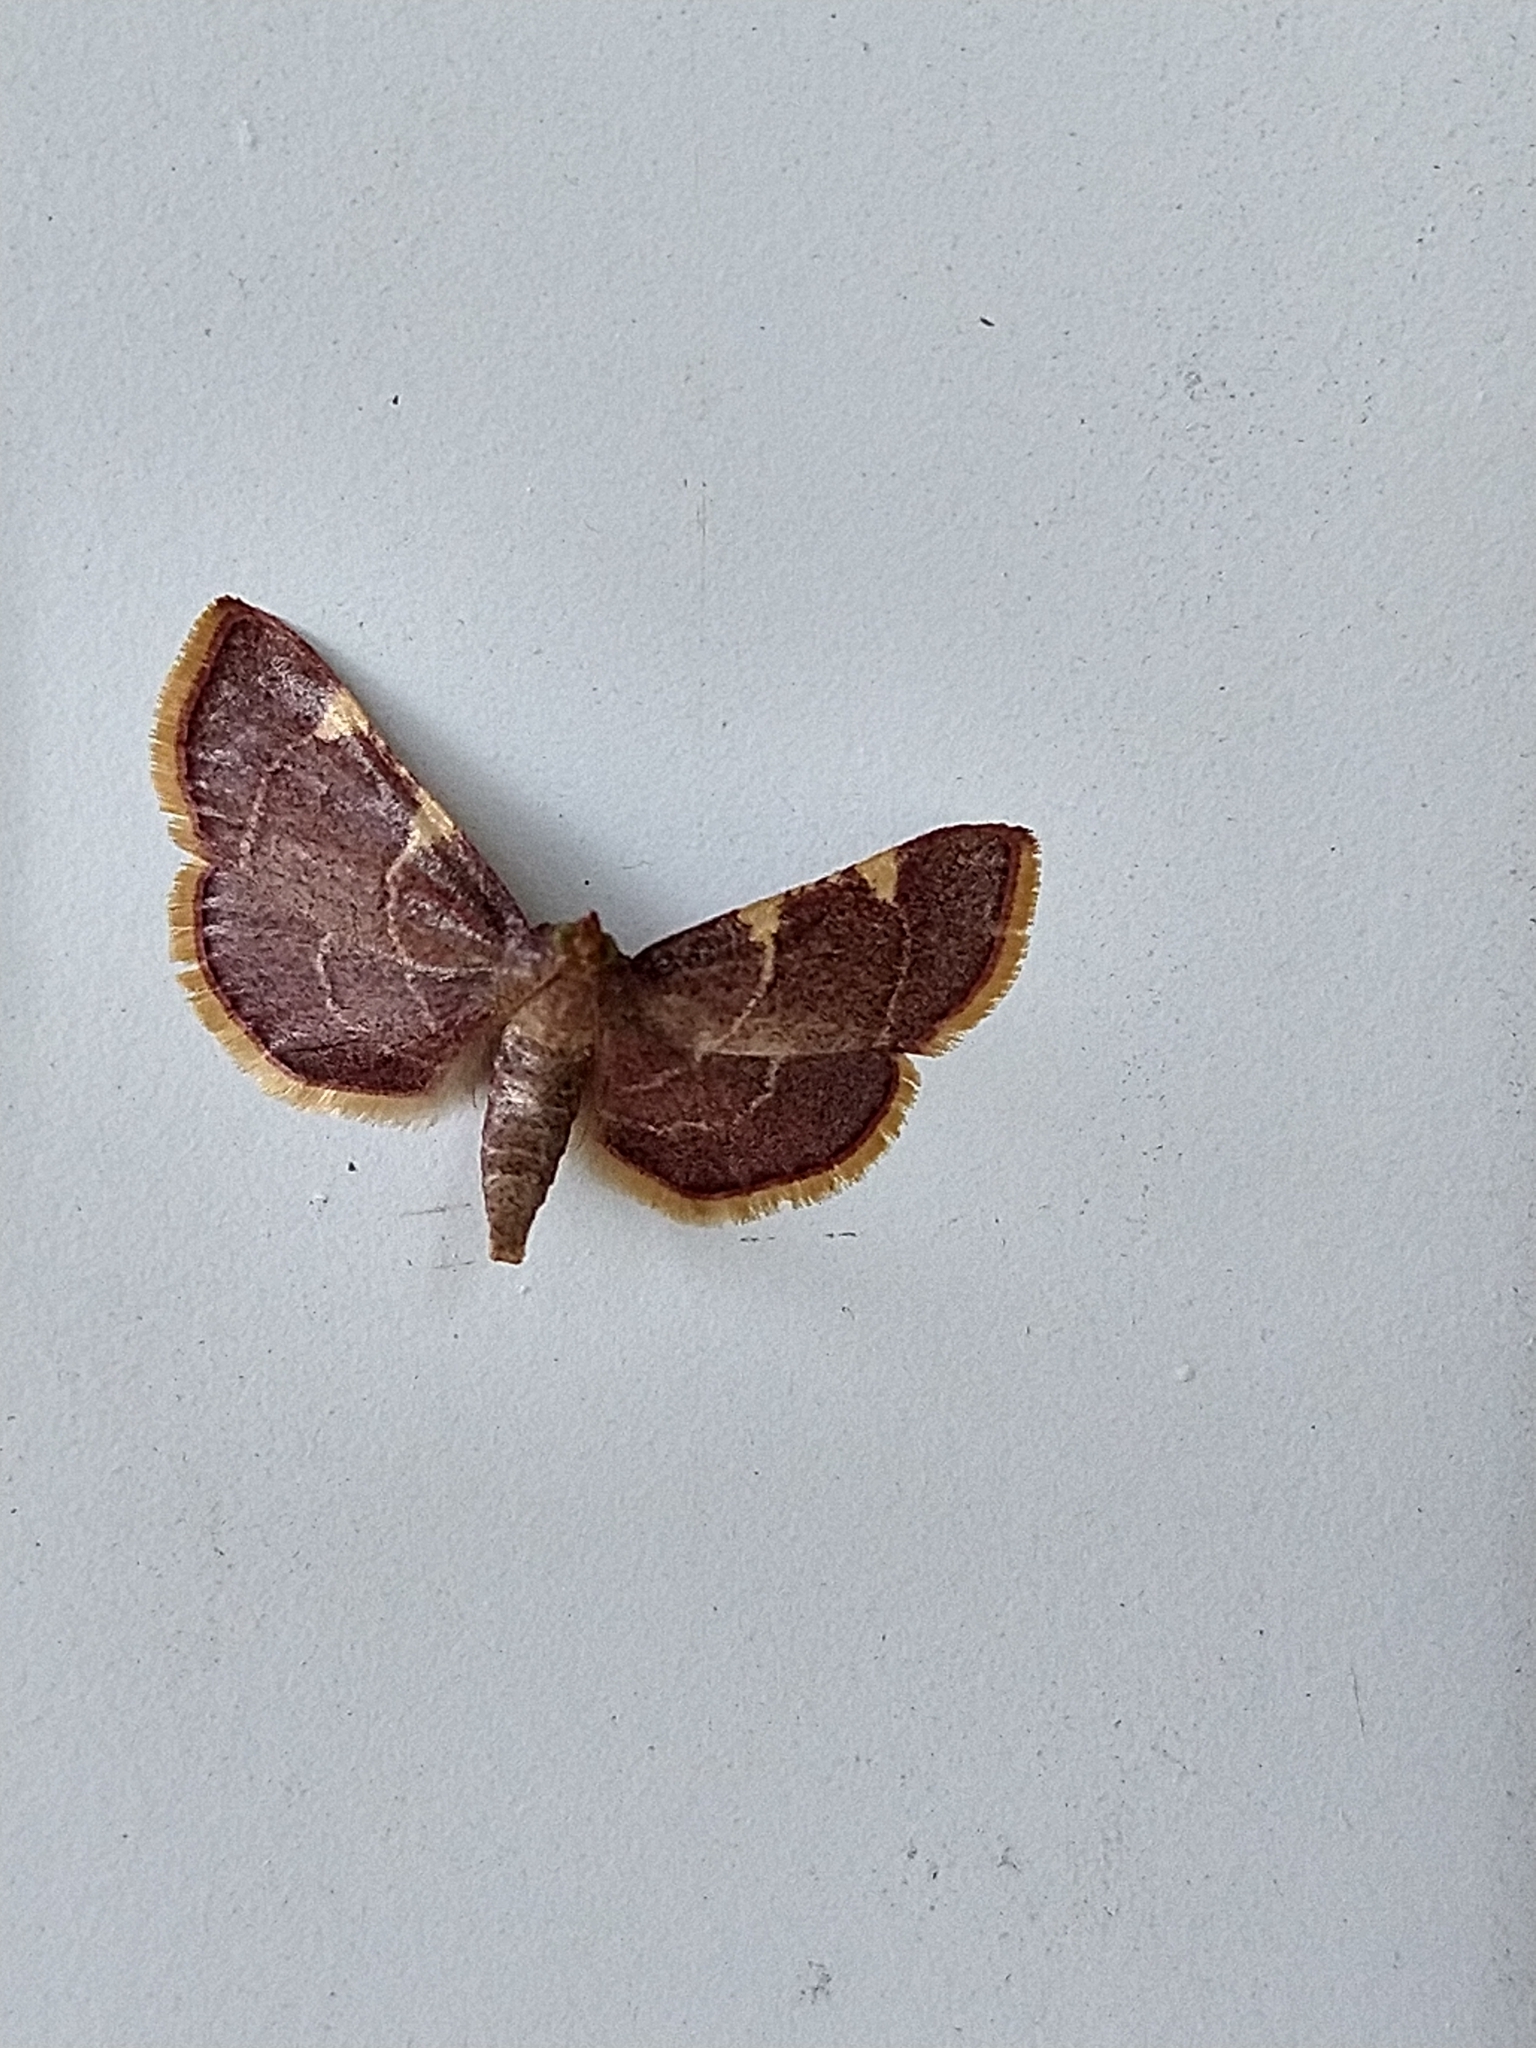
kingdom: Animalia
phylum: Arthropoda
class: Insecta
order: Lepidoptera
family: Pyralidae
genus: Hypsopygia
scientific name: Hypsopygia olinalis
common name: Yellow-fringed dolichomia moth
